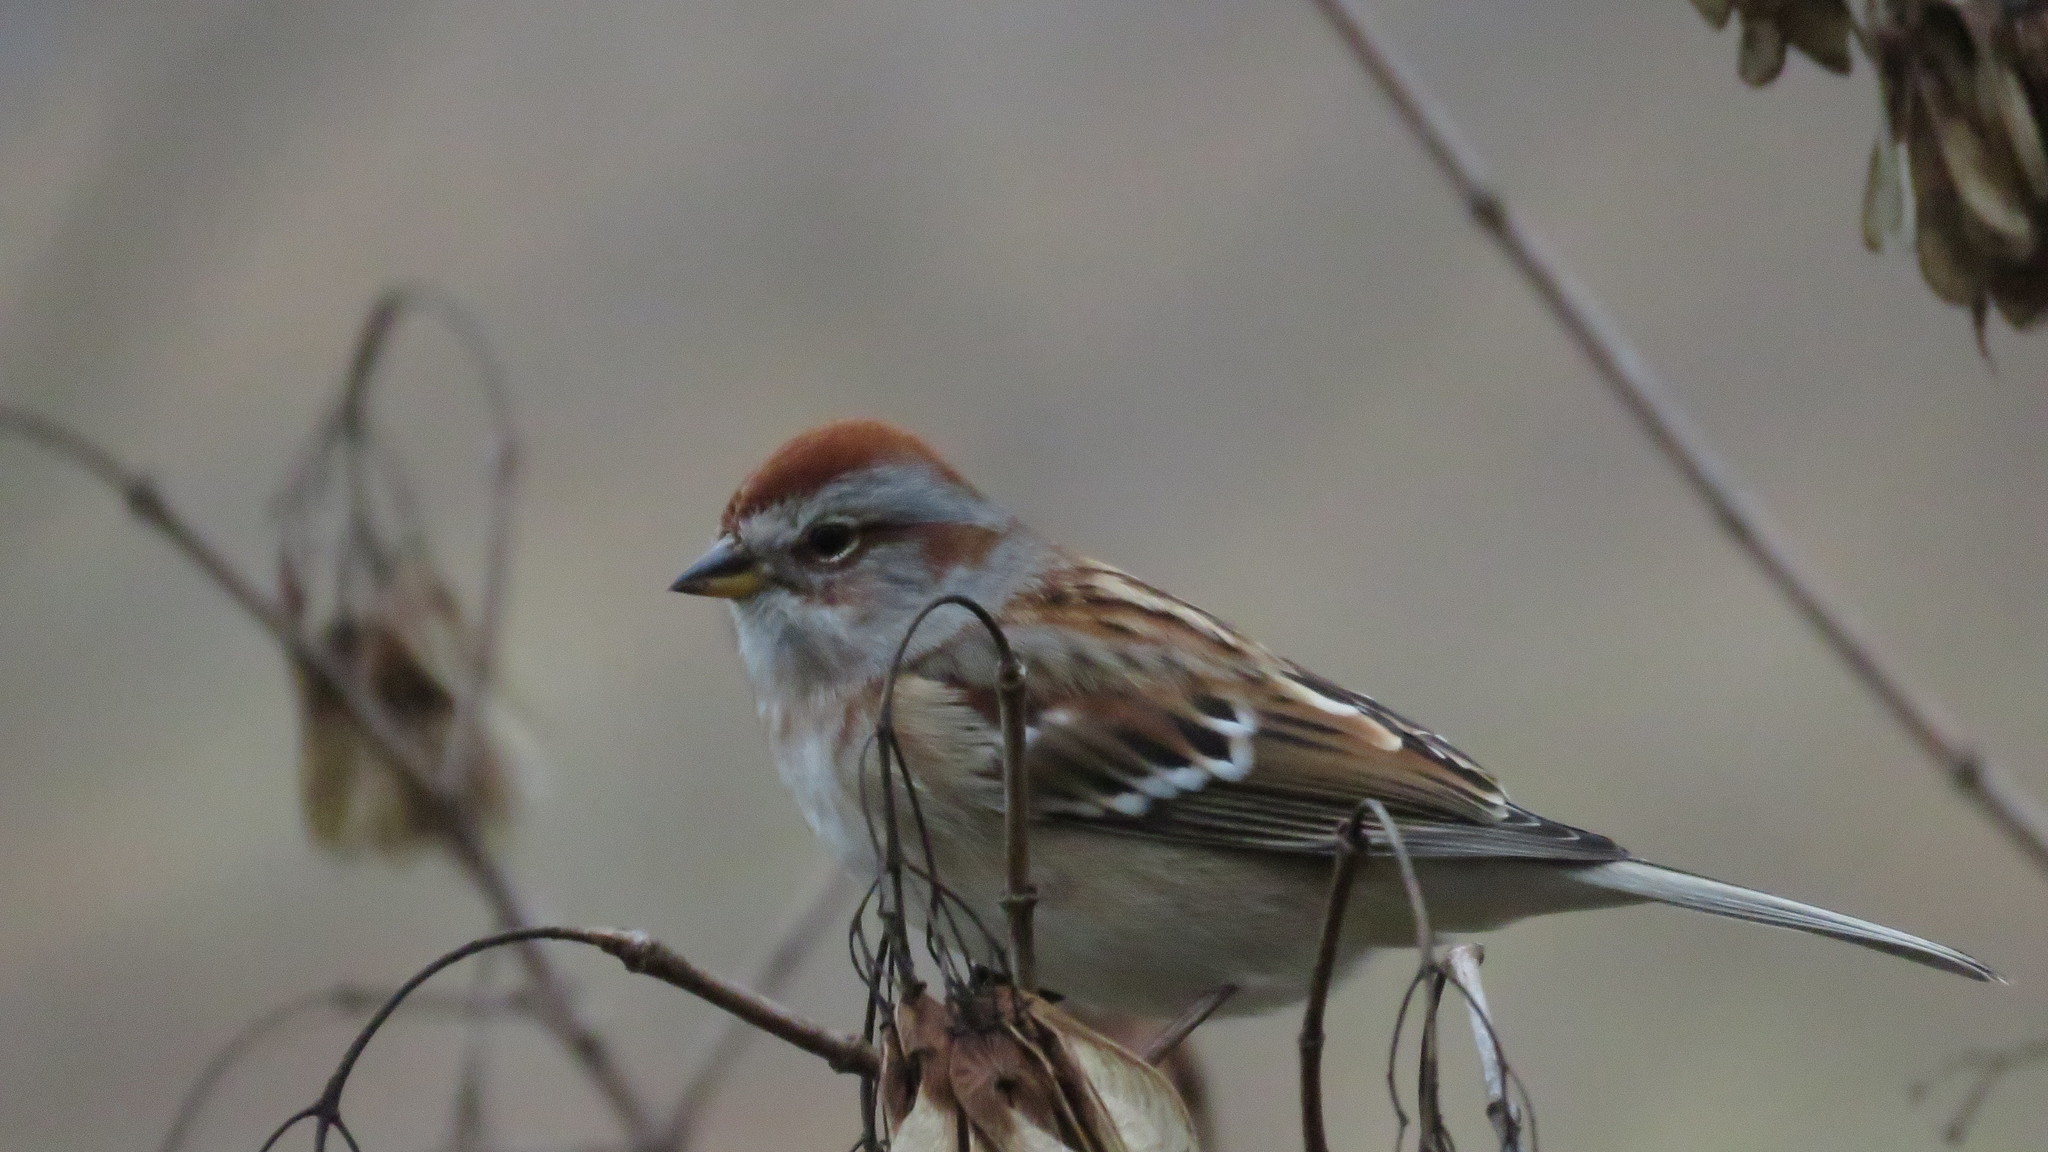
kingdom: Animalia
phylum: Chordata
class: Aves
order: Passeriformes
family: Passerellidae
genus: Spizelloides
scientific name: Spizelloides arborea
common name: American tree sparrow
